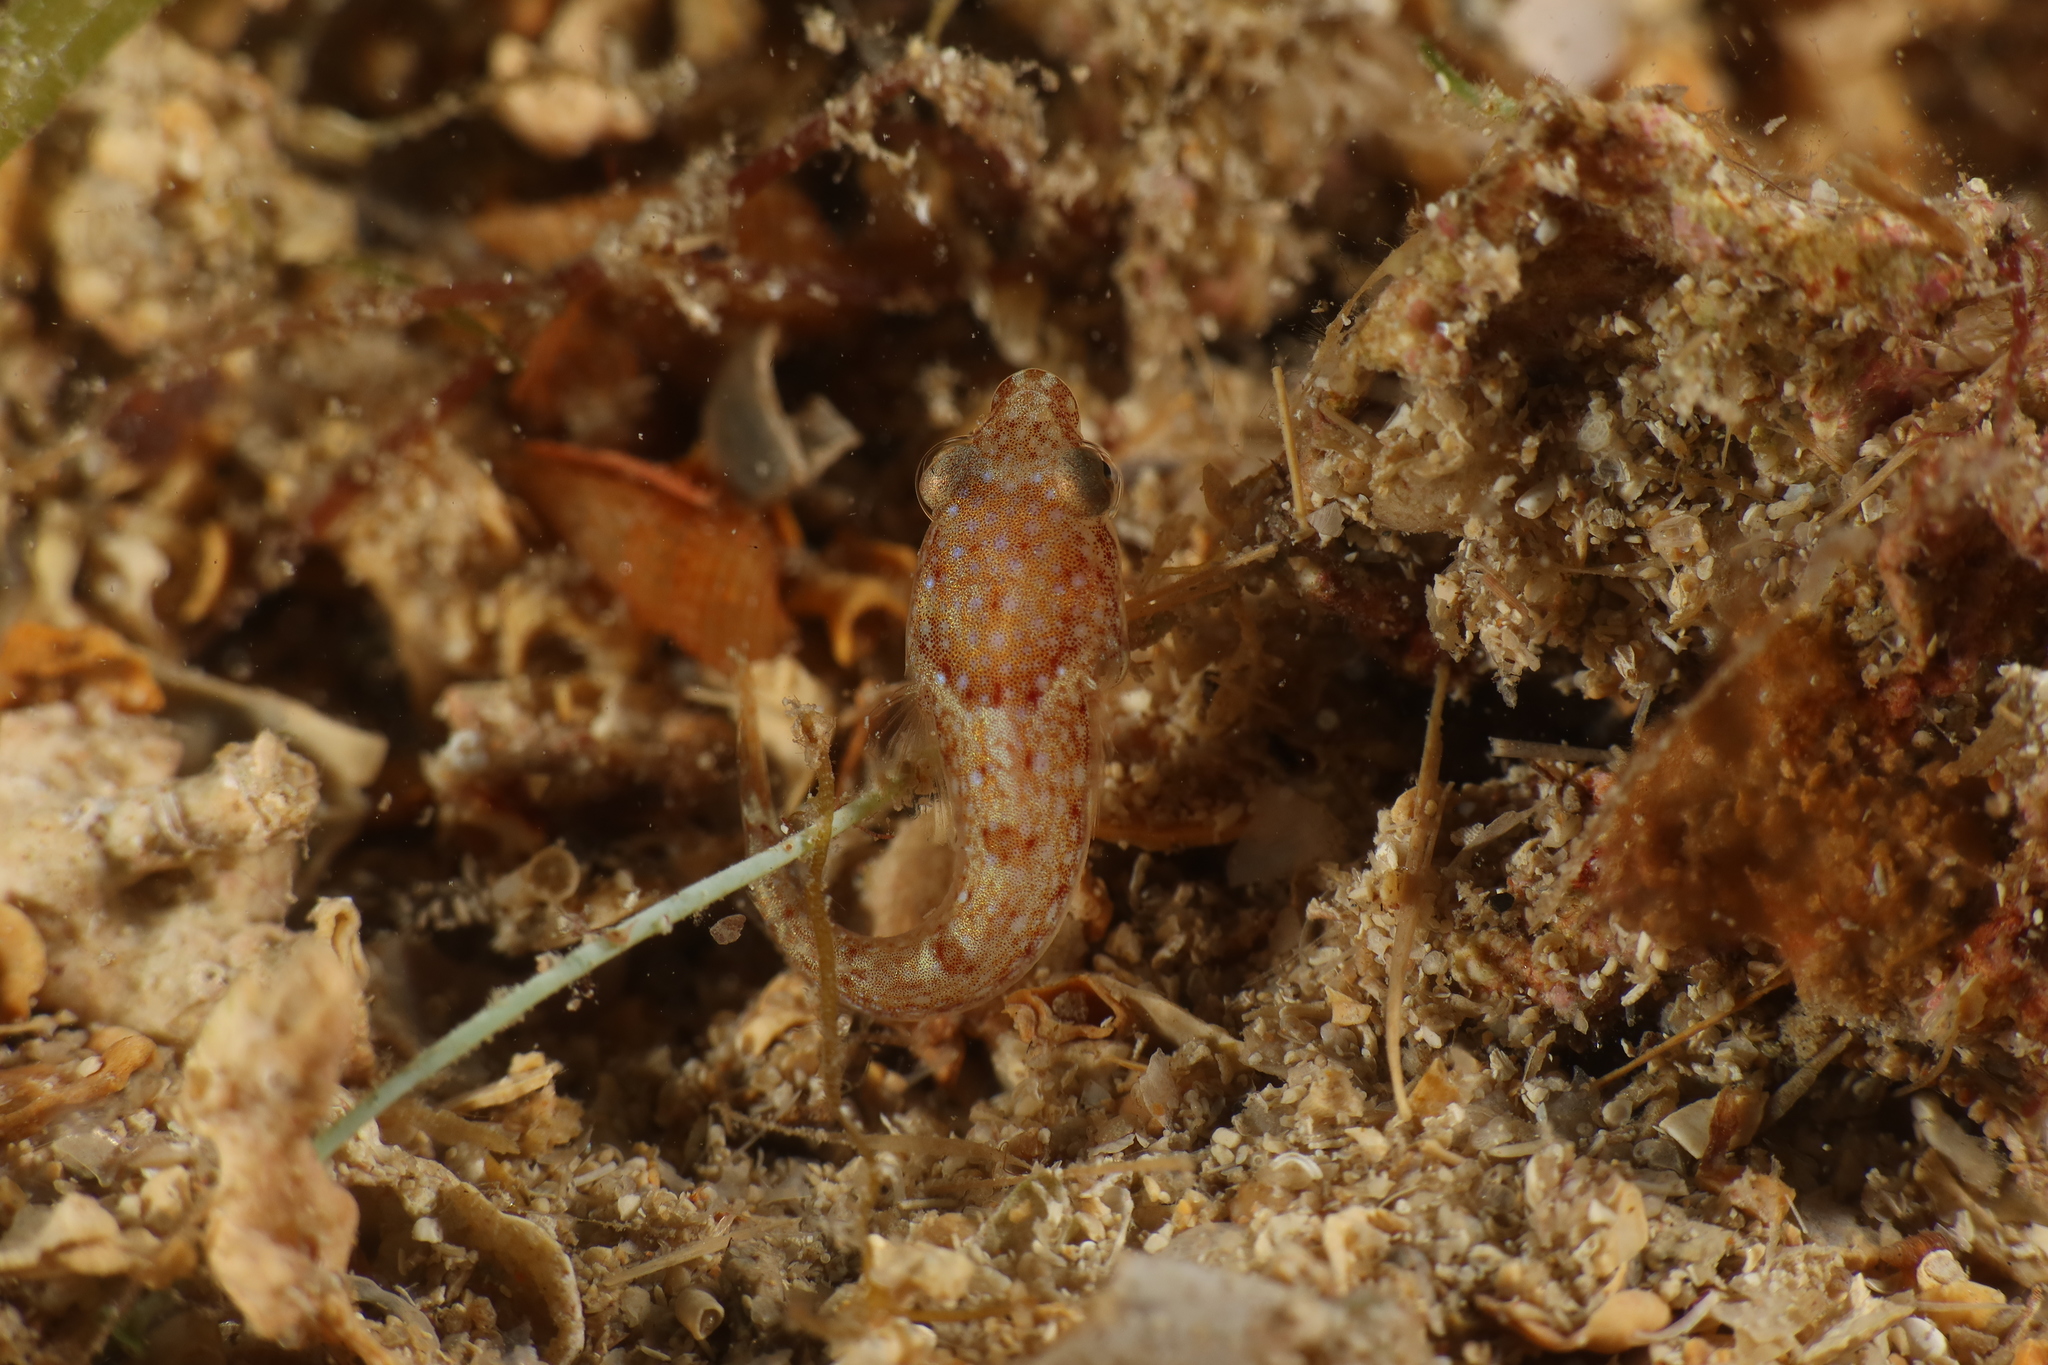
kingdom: Animalia
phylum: Chordata
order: Gobiesociformes
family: Gobiesocidae
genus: Diplecogaster
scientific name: Diplecogaster bimaculata
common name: Two-spotted clingfish
